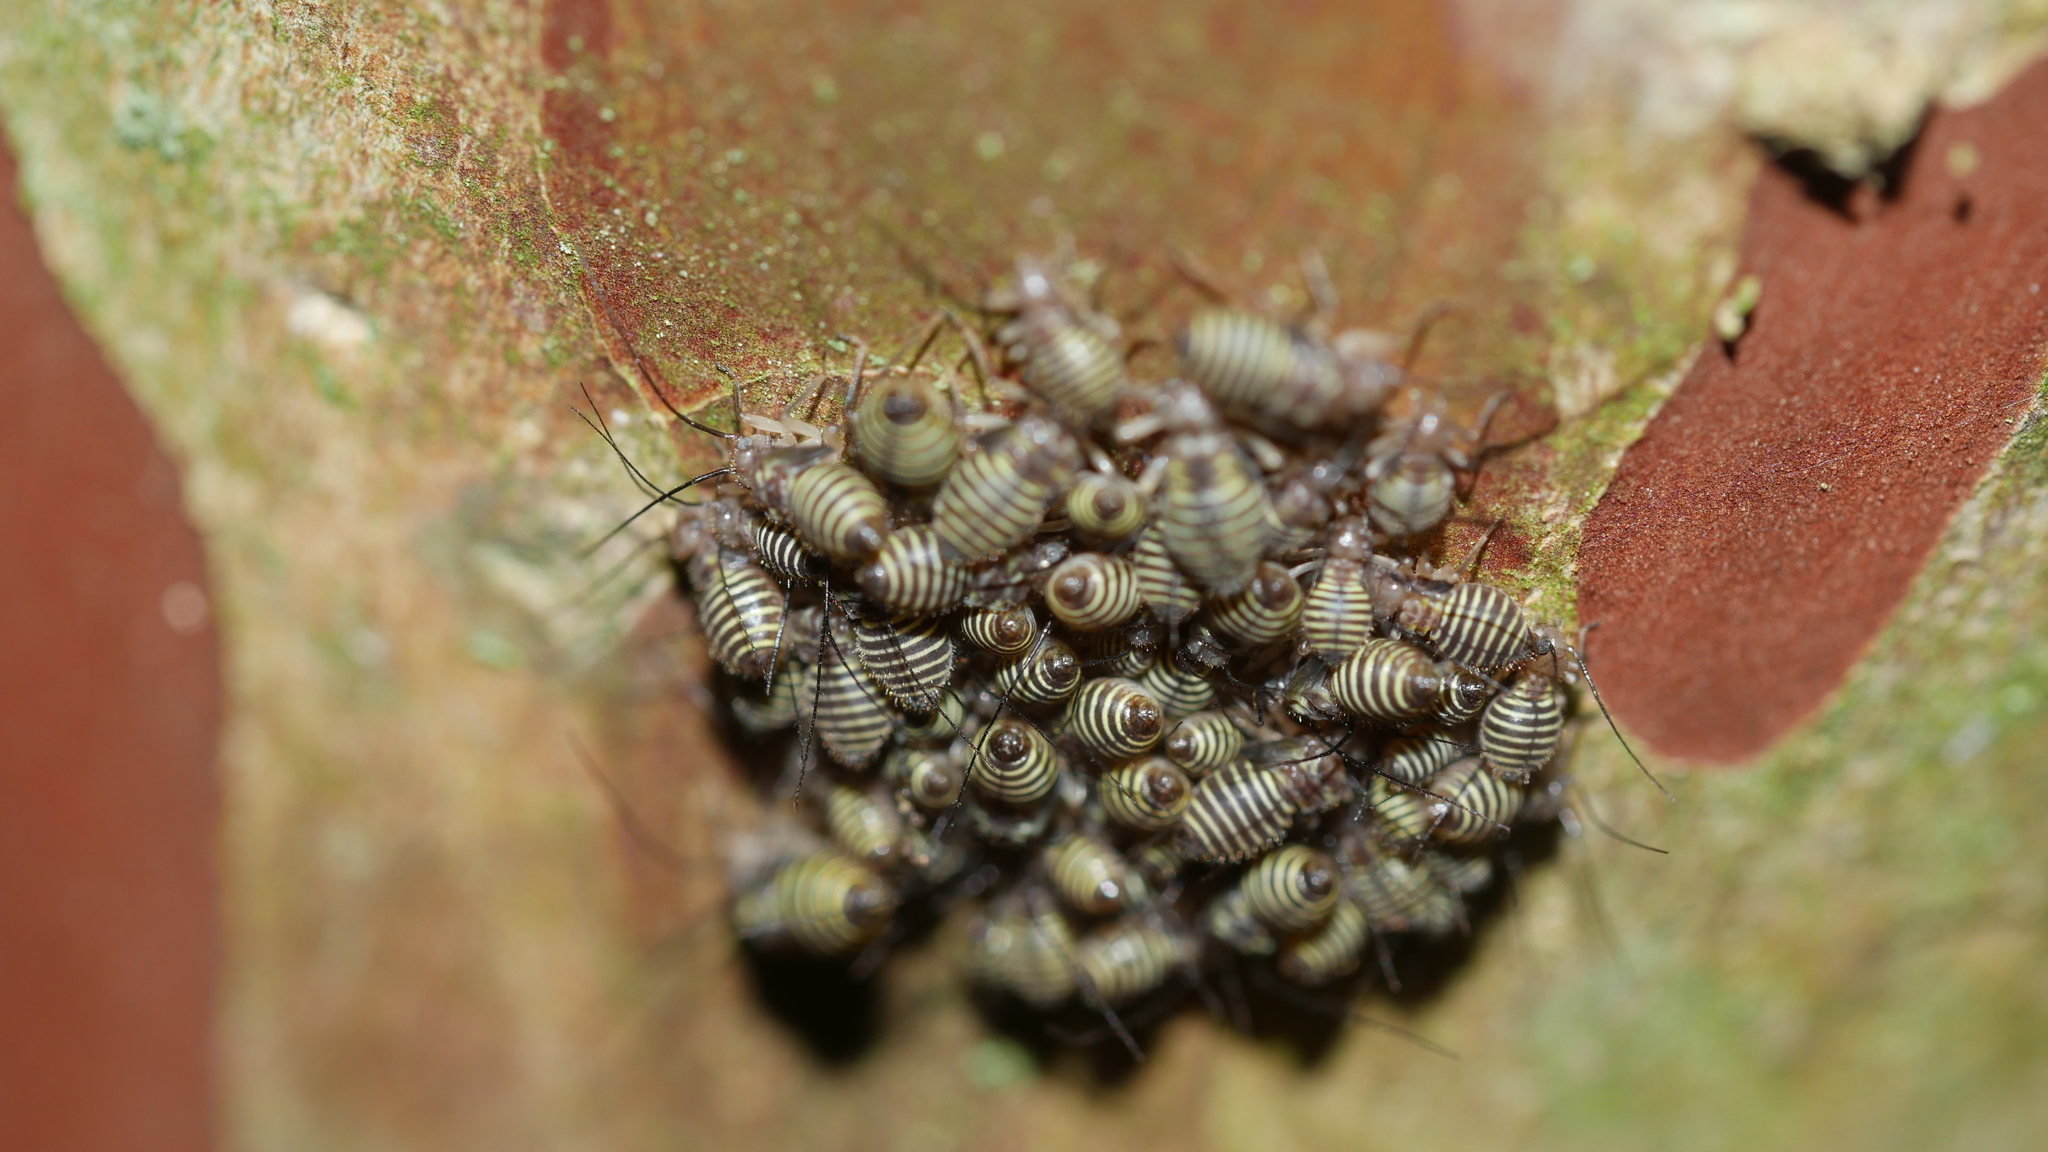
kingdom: Animalia
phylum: Arthropoda
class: Insecta
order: Psocodea
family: Psocidae
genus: Cerastipsocus
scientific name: Cerastipsocus venosus
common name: Tree cattle
